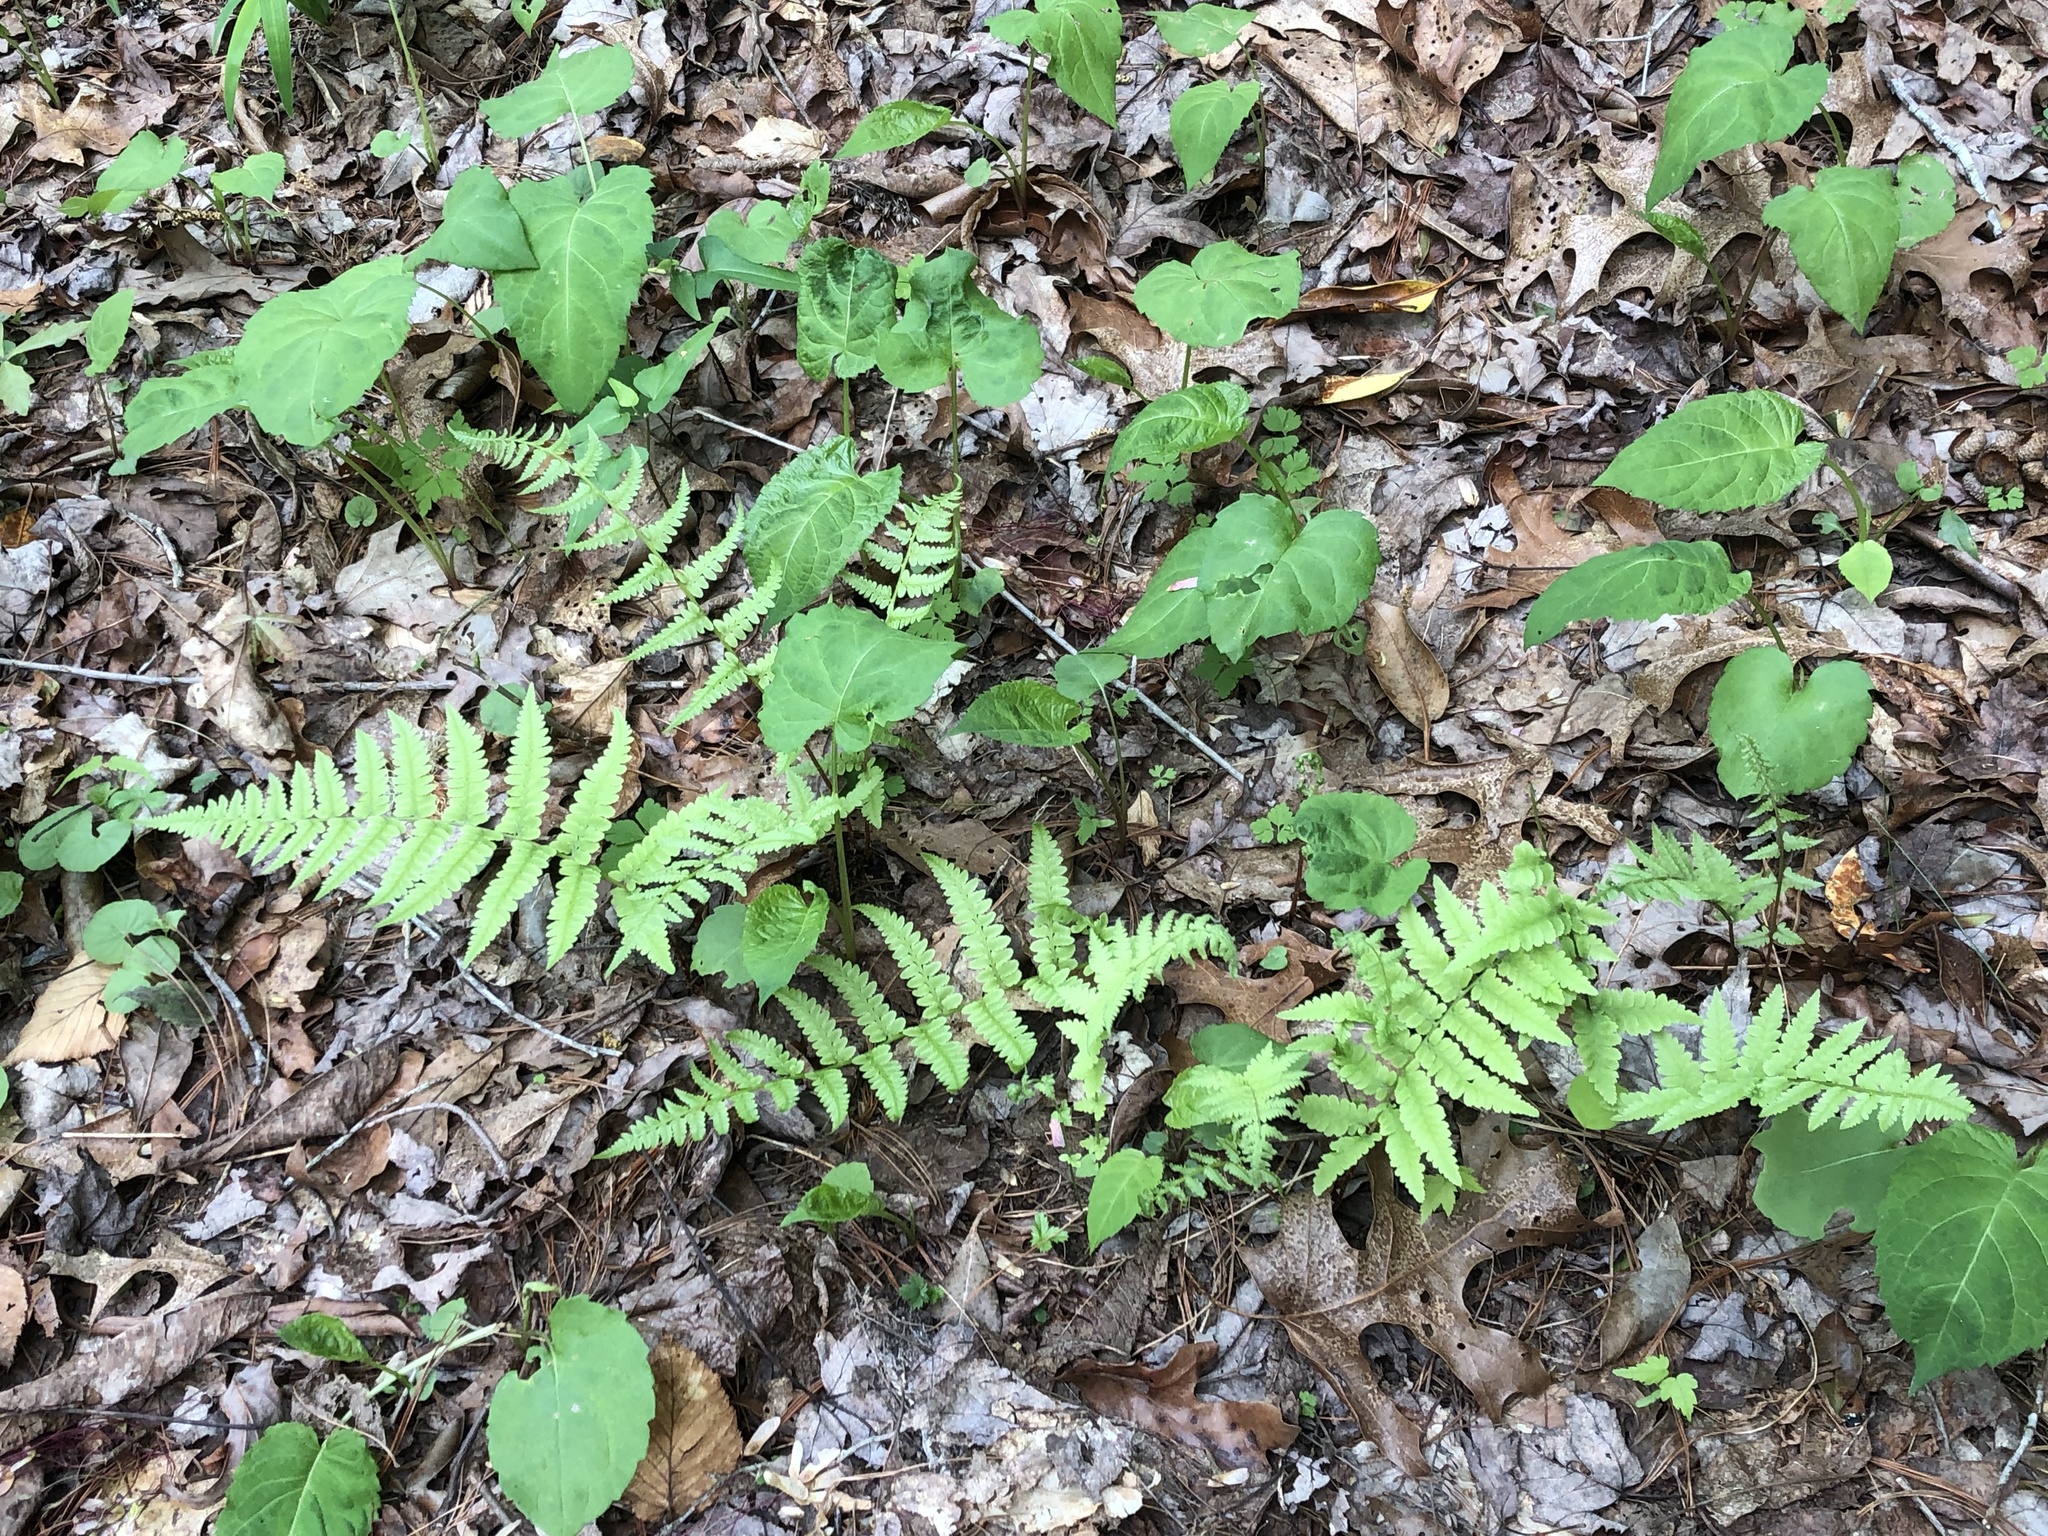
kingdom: Plantae
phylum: Tracheophyta
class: Polypodiopsida
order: Polypodiales
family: Athyriaceae
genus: Athyrium
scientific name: Athyrium asplenioides
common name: Southern lady fern
